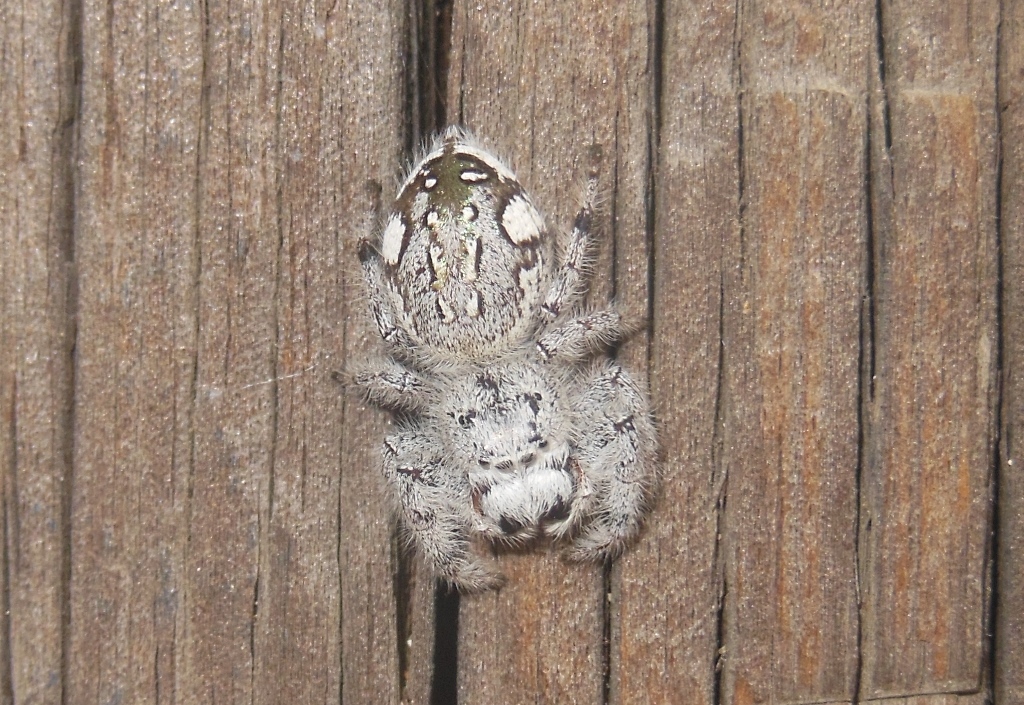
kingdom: Animalia
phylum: Arthropoda
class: Arachnida
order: Araneae
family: Salticidae
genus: Paraphidippus
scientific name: Paraphidippus fartilis
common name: Jumping spiders
